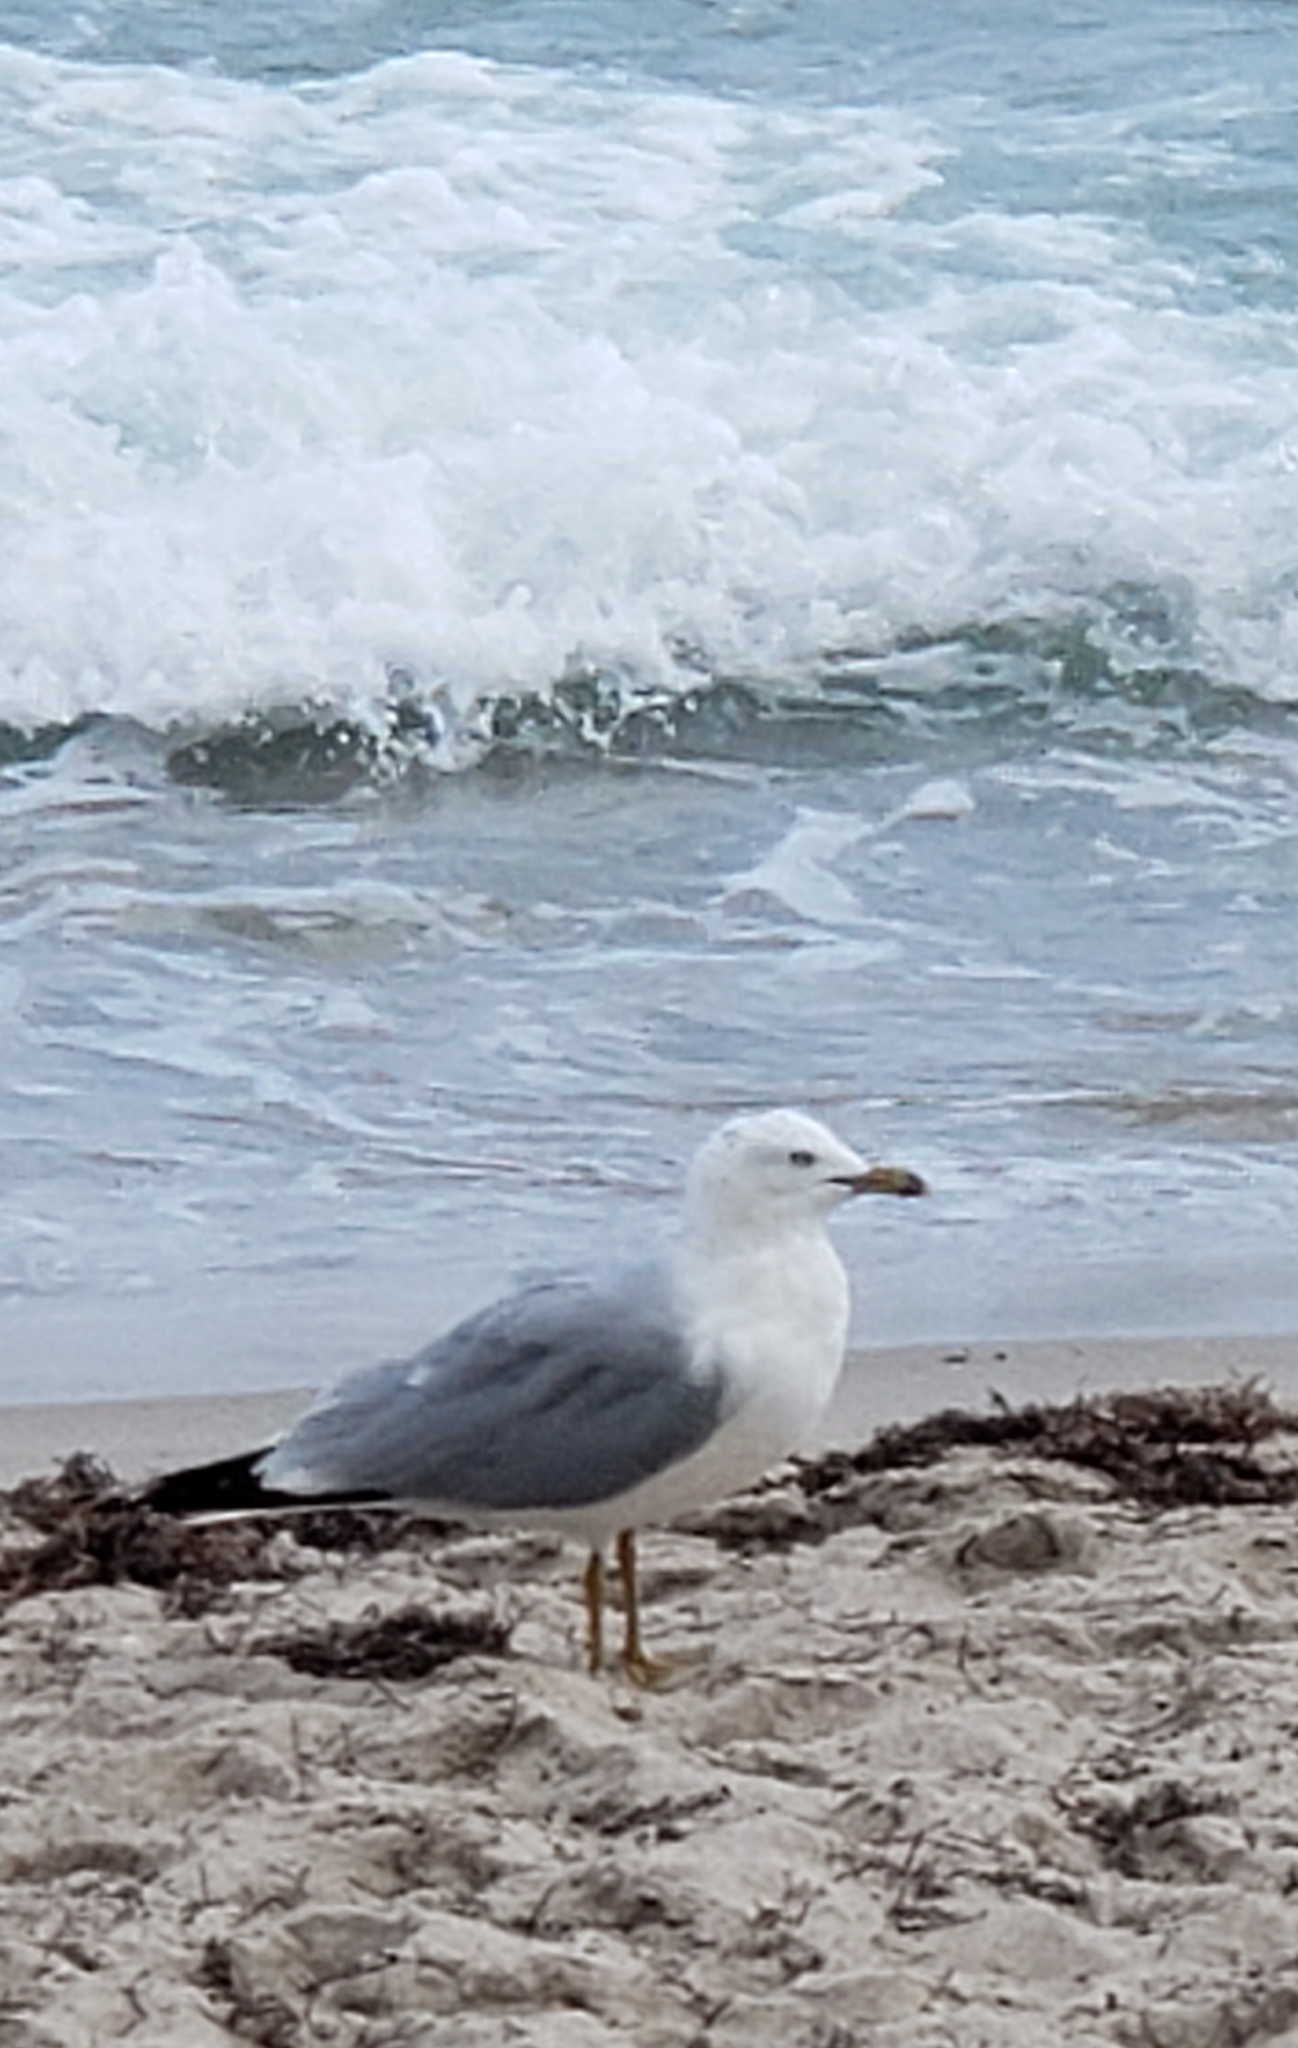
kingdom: Animalia
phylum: Chordata
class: Aves
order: Charadriiformes
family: Laridae
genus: Larus
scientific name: Larus delawarensis
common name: Ring-billed gull
